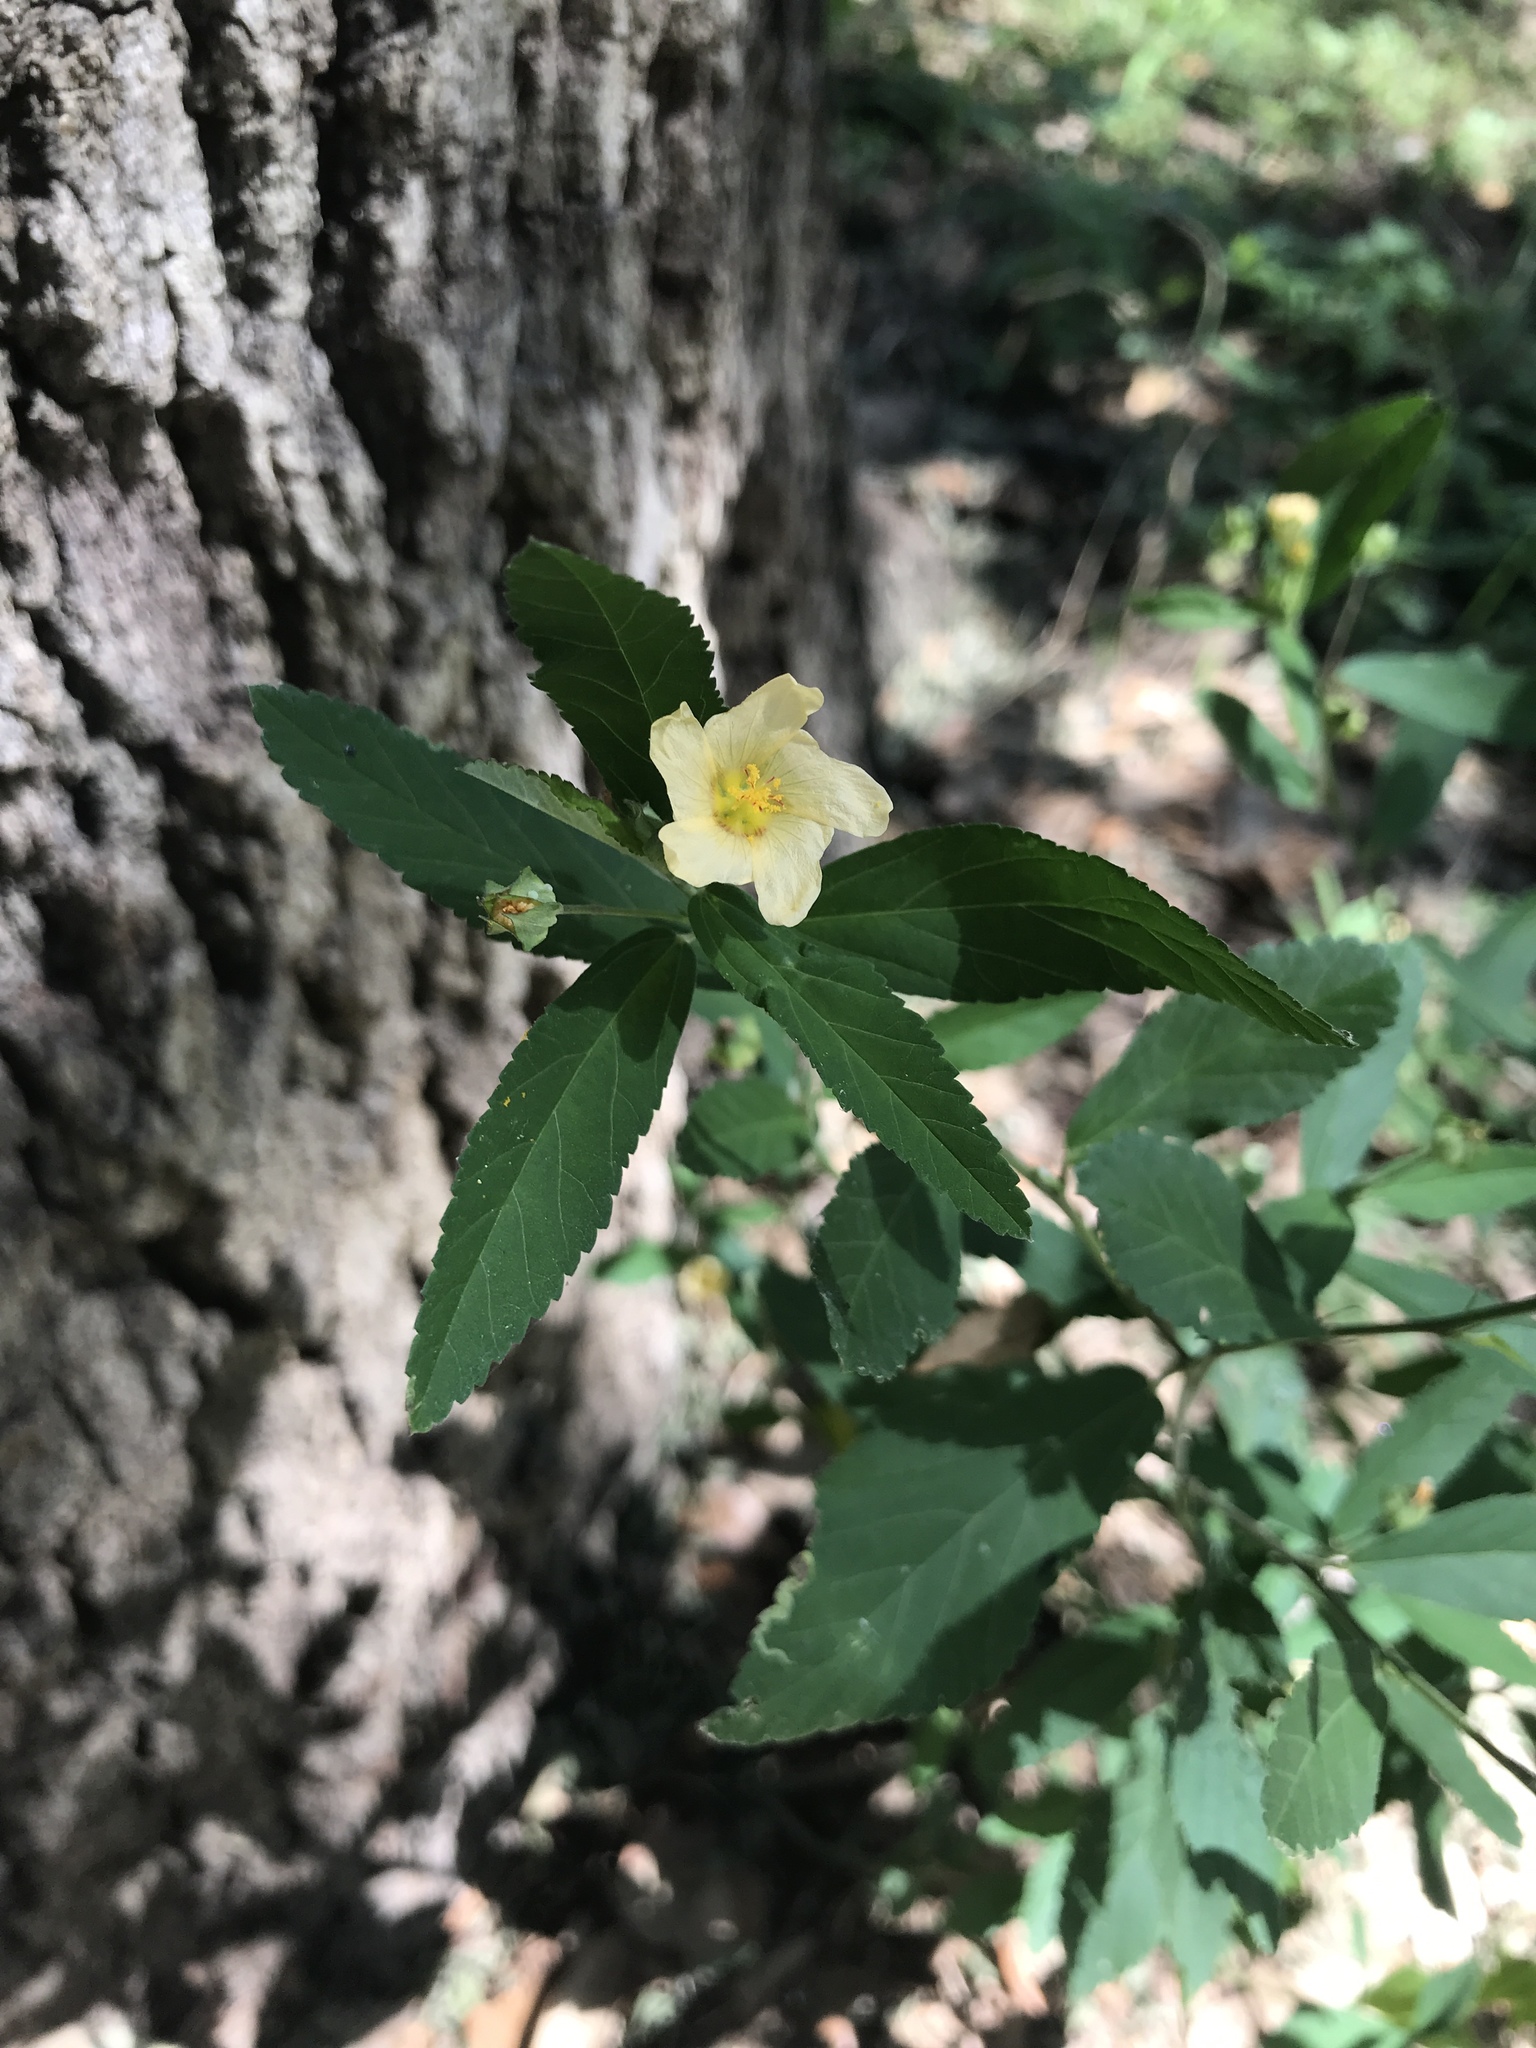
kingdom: Plantae
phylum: Tracheophyta
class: Magnoliopsida
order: Malvales
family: Malvaceae
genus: Sida
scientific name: Sida rhombifolia
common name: Queensland-hemp
